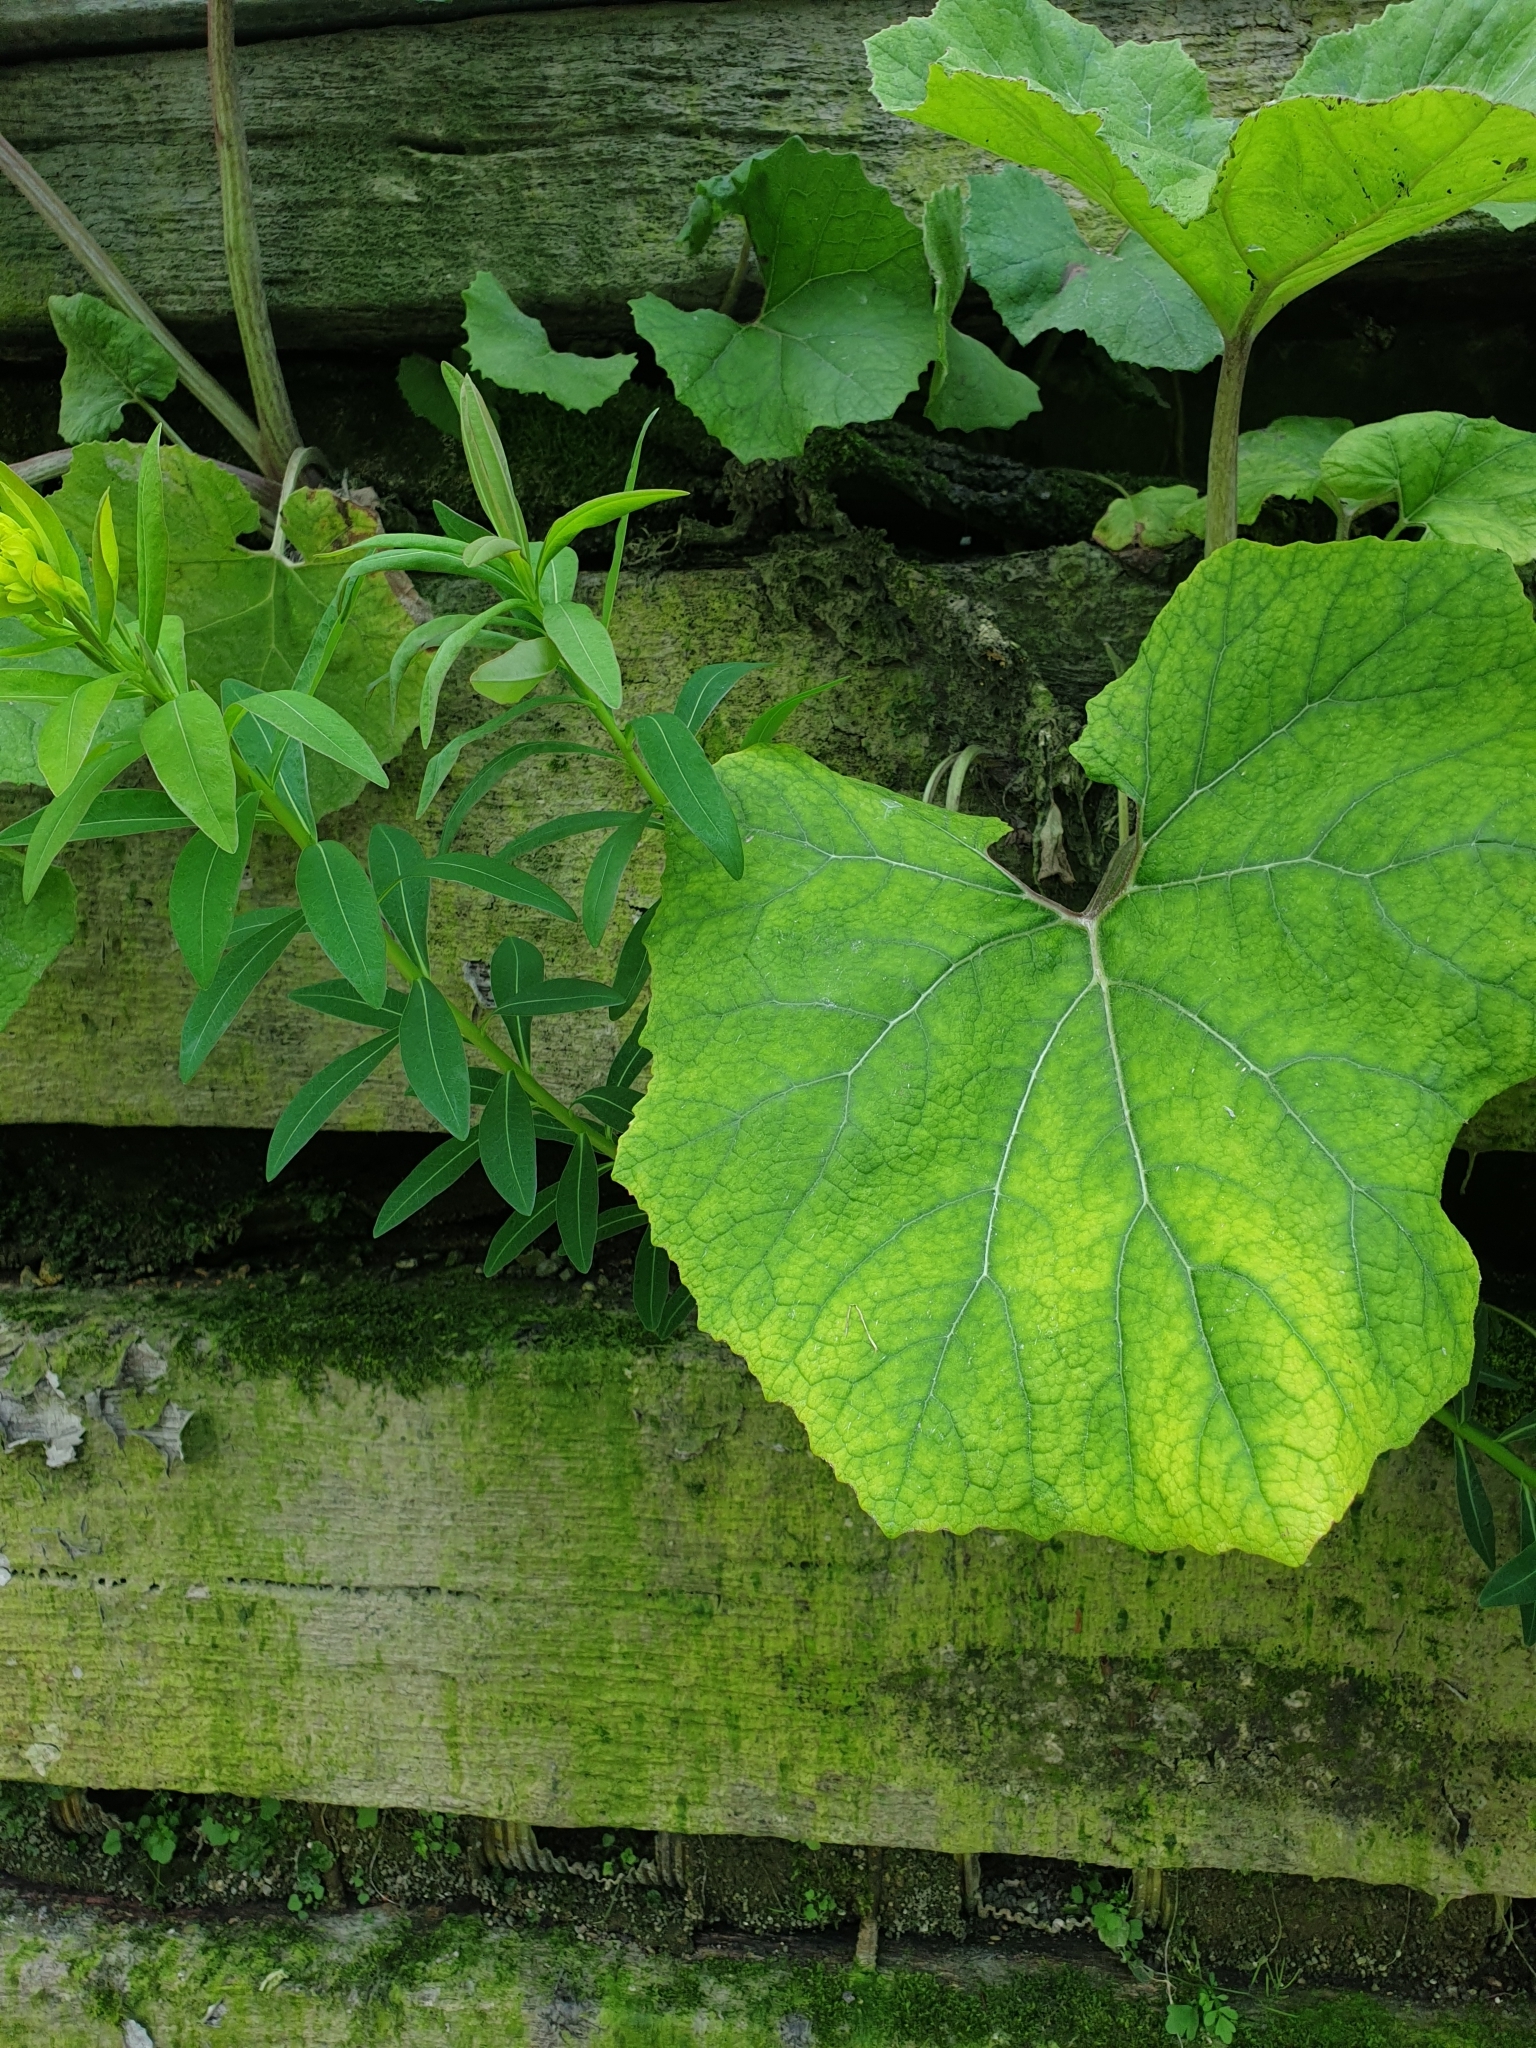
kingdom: Plantae
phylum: Tracheophyta
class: Magnoliopsida
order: Malpighiales
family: Euphorbiaceae
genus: Euphorbia
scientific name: Euphorbia palustris
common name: Marsh spurge
